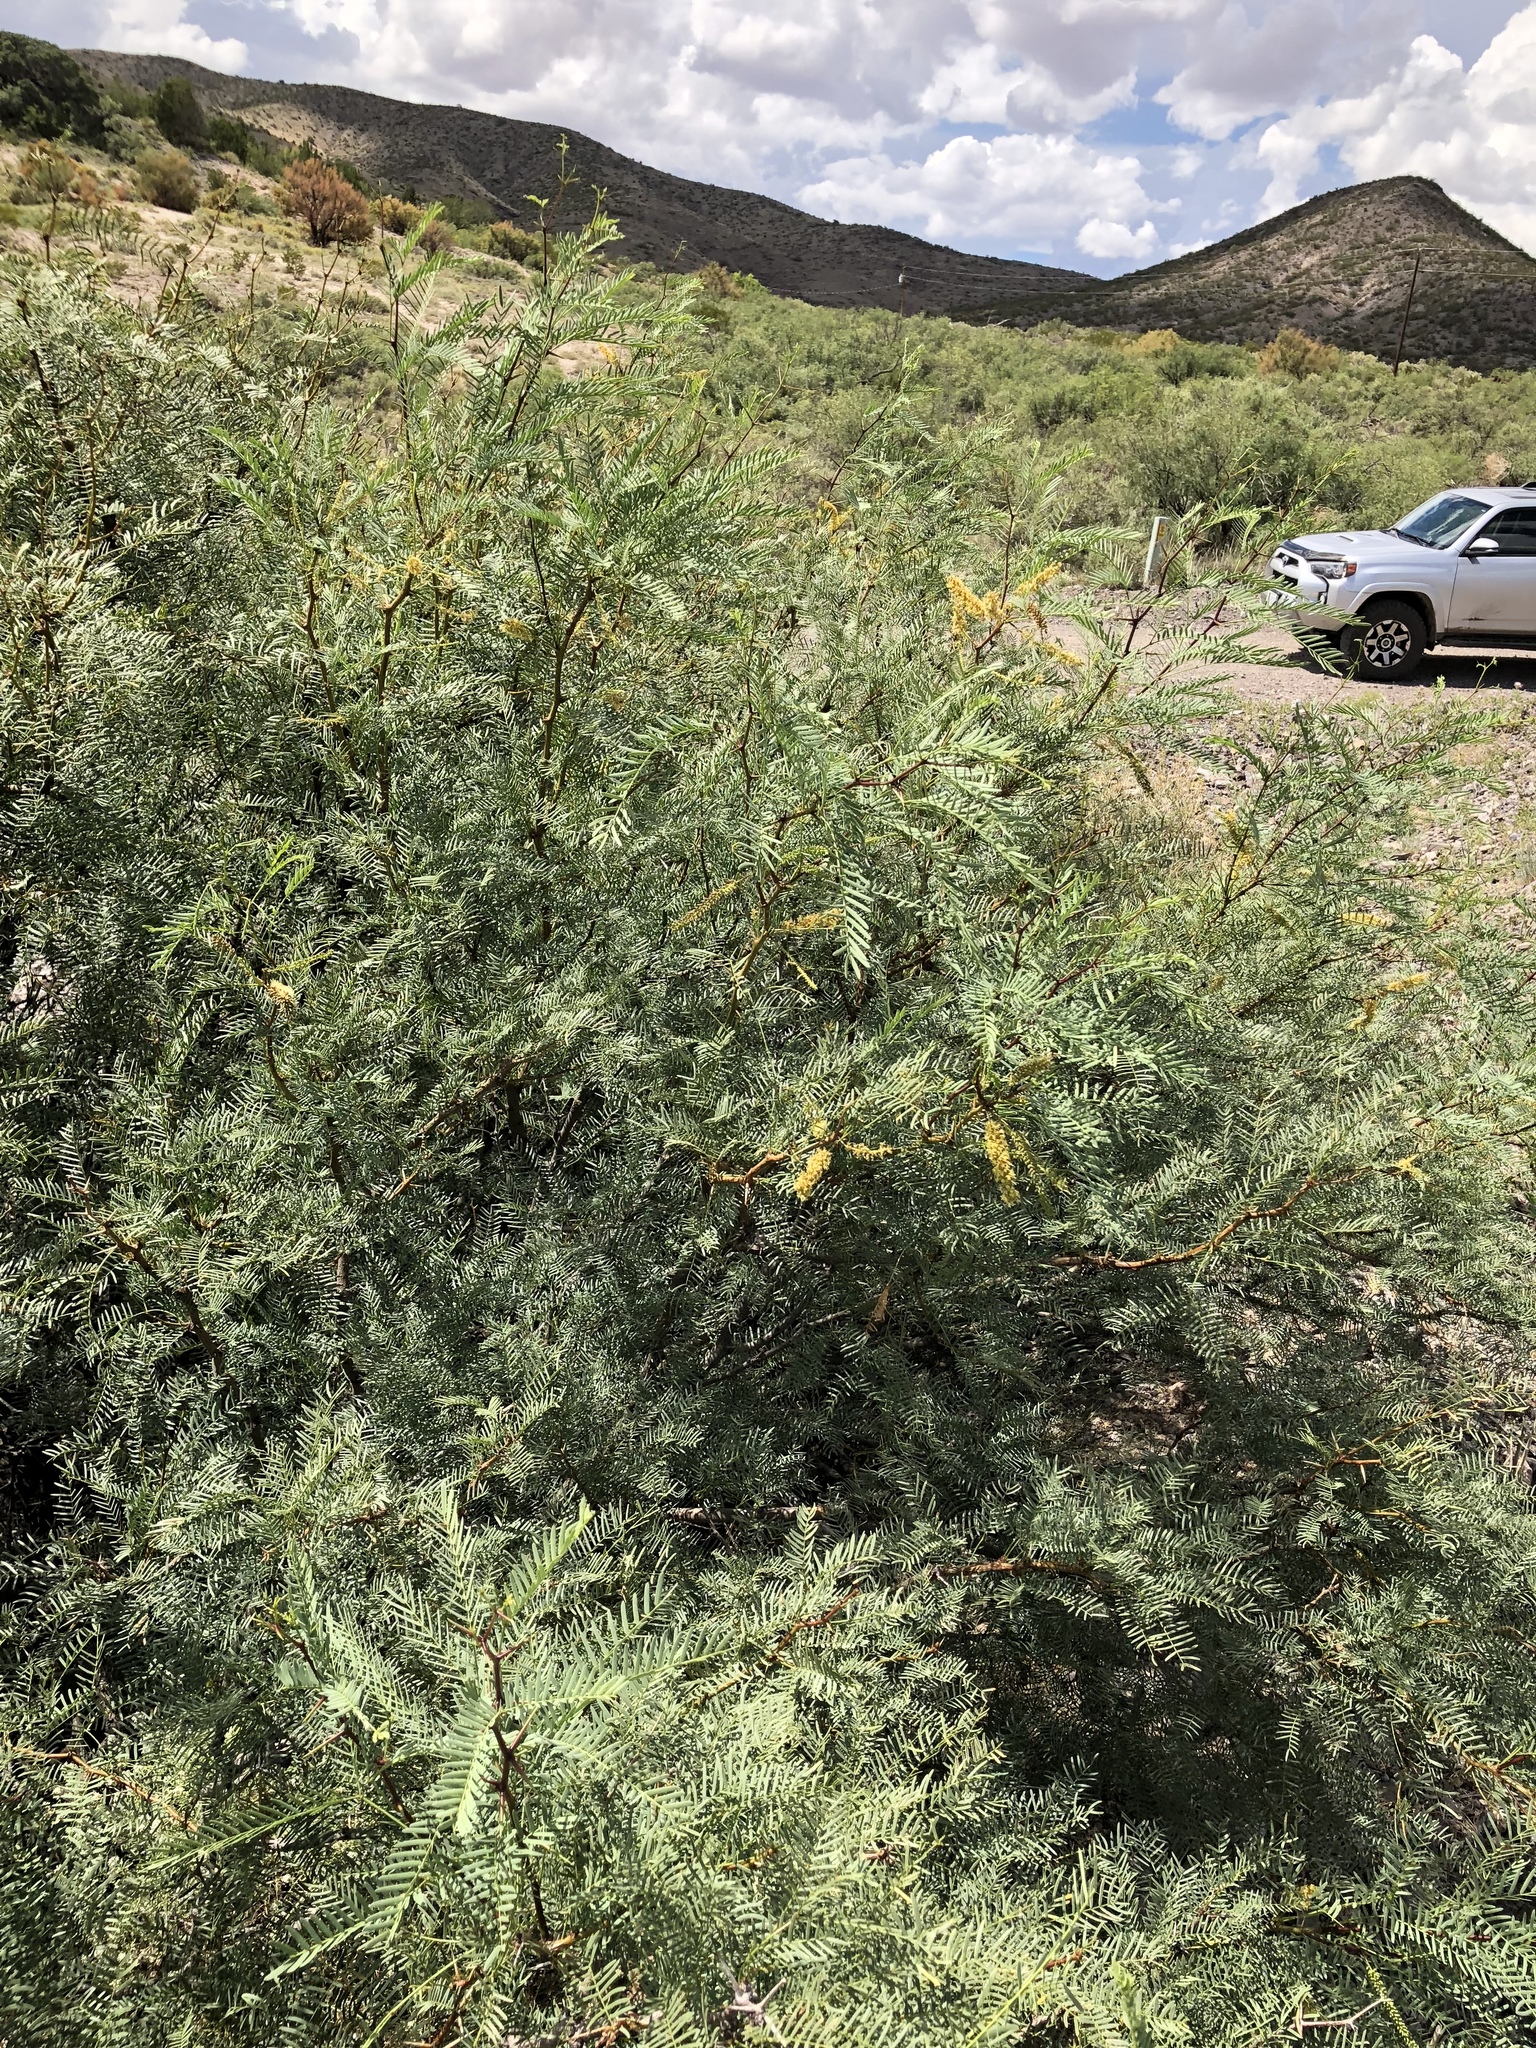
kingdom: Plantae
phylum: Tracheophyta
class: Magnoliopsida
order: Fabales
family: Fabaceae
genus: Prosopis
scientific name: Prosopis glandulosa
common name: Honey mesquite
